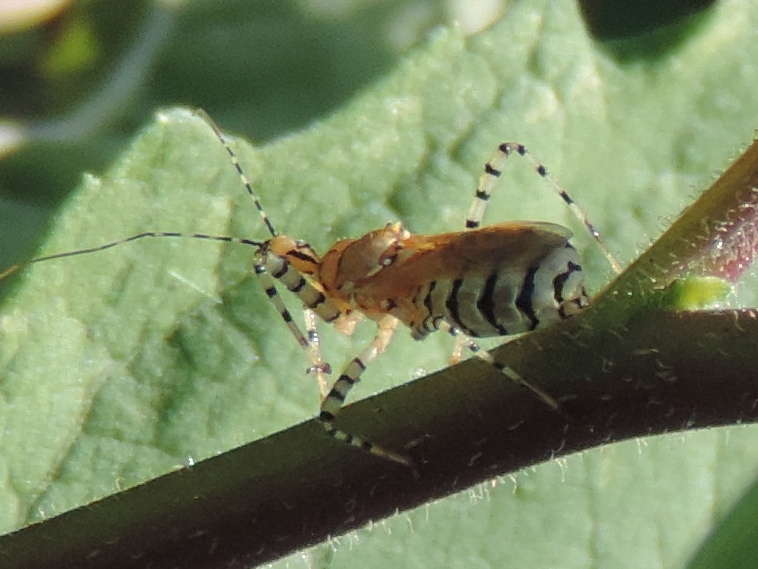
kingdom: Animalia
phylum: Arthropoda
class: Insecta
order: Hemiptera
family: Reduviidae
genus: Pselliopus
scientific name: Pselliopus latispina
